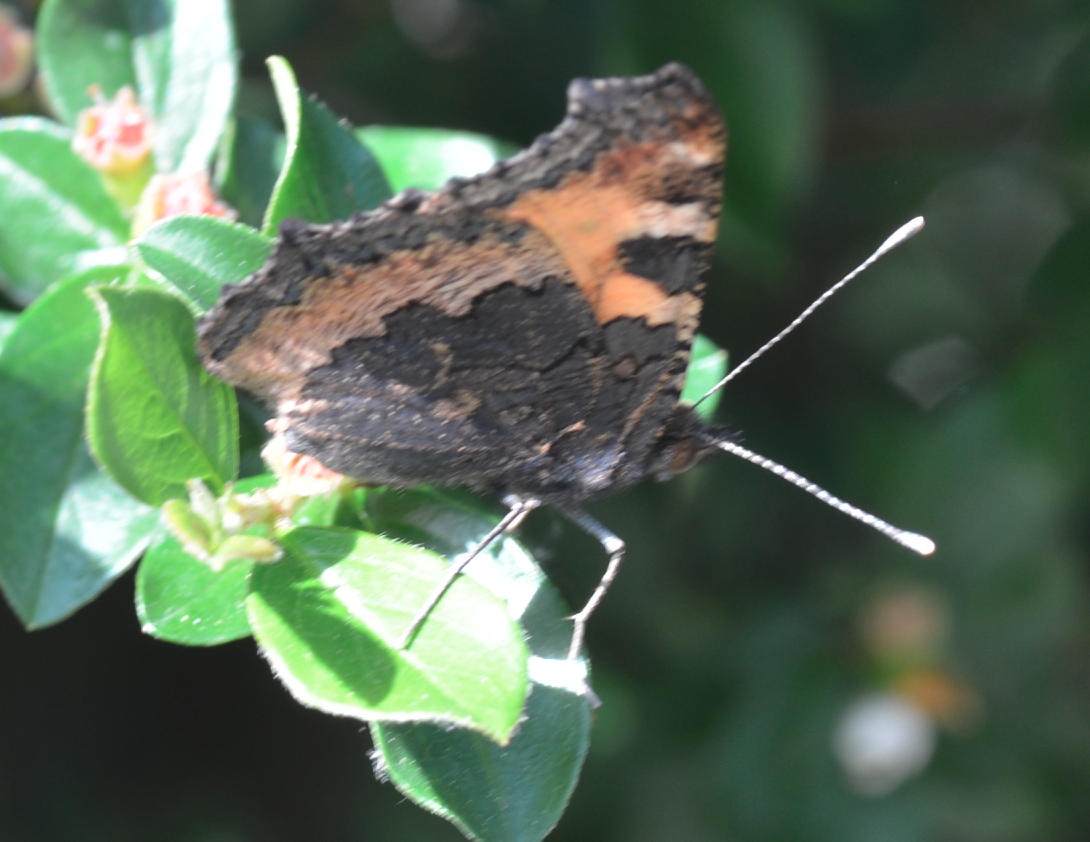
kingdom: Animalia
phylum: Arthropoda
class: Insecta
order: Lepidoptera
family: Nymphalidae
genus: Aglais
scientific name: Aglais urticae
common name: Small tortoiseshell
